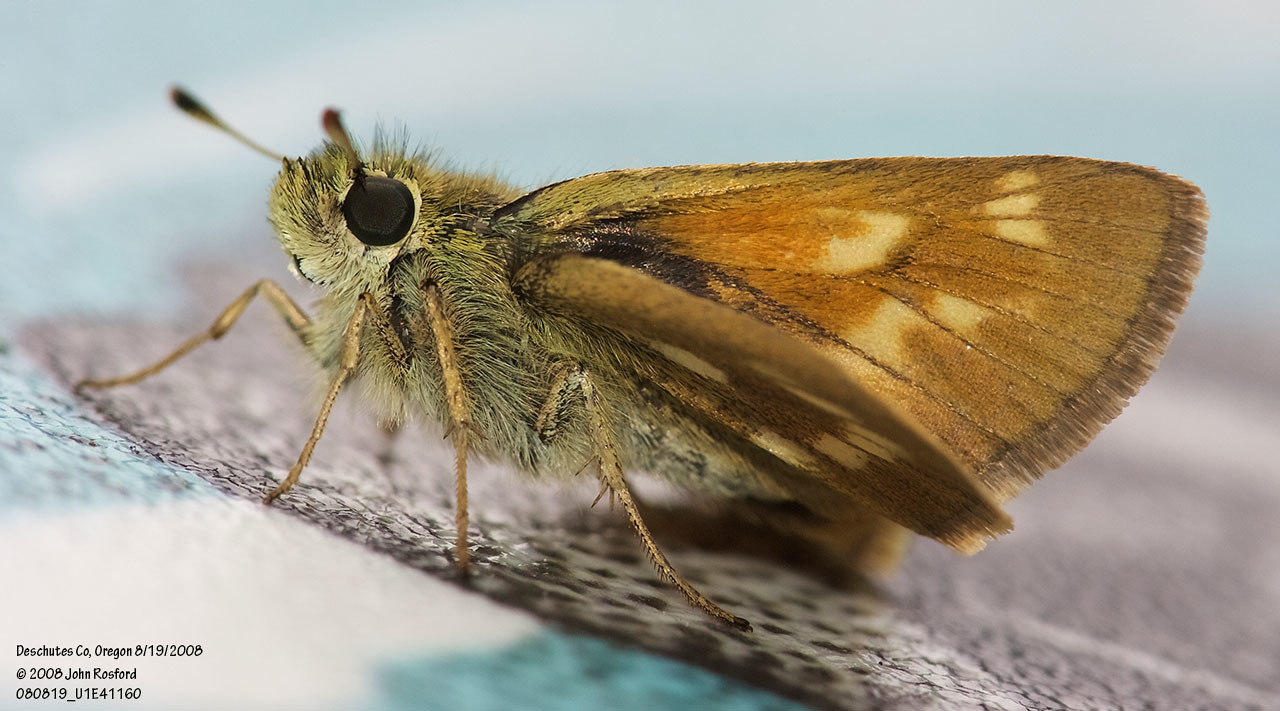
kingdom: Animalia
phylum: Arthropoda
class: Insecta
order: Lepidoptera
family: Hesperiidae
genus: Polites
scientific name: Polites mystic
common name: Long dash
